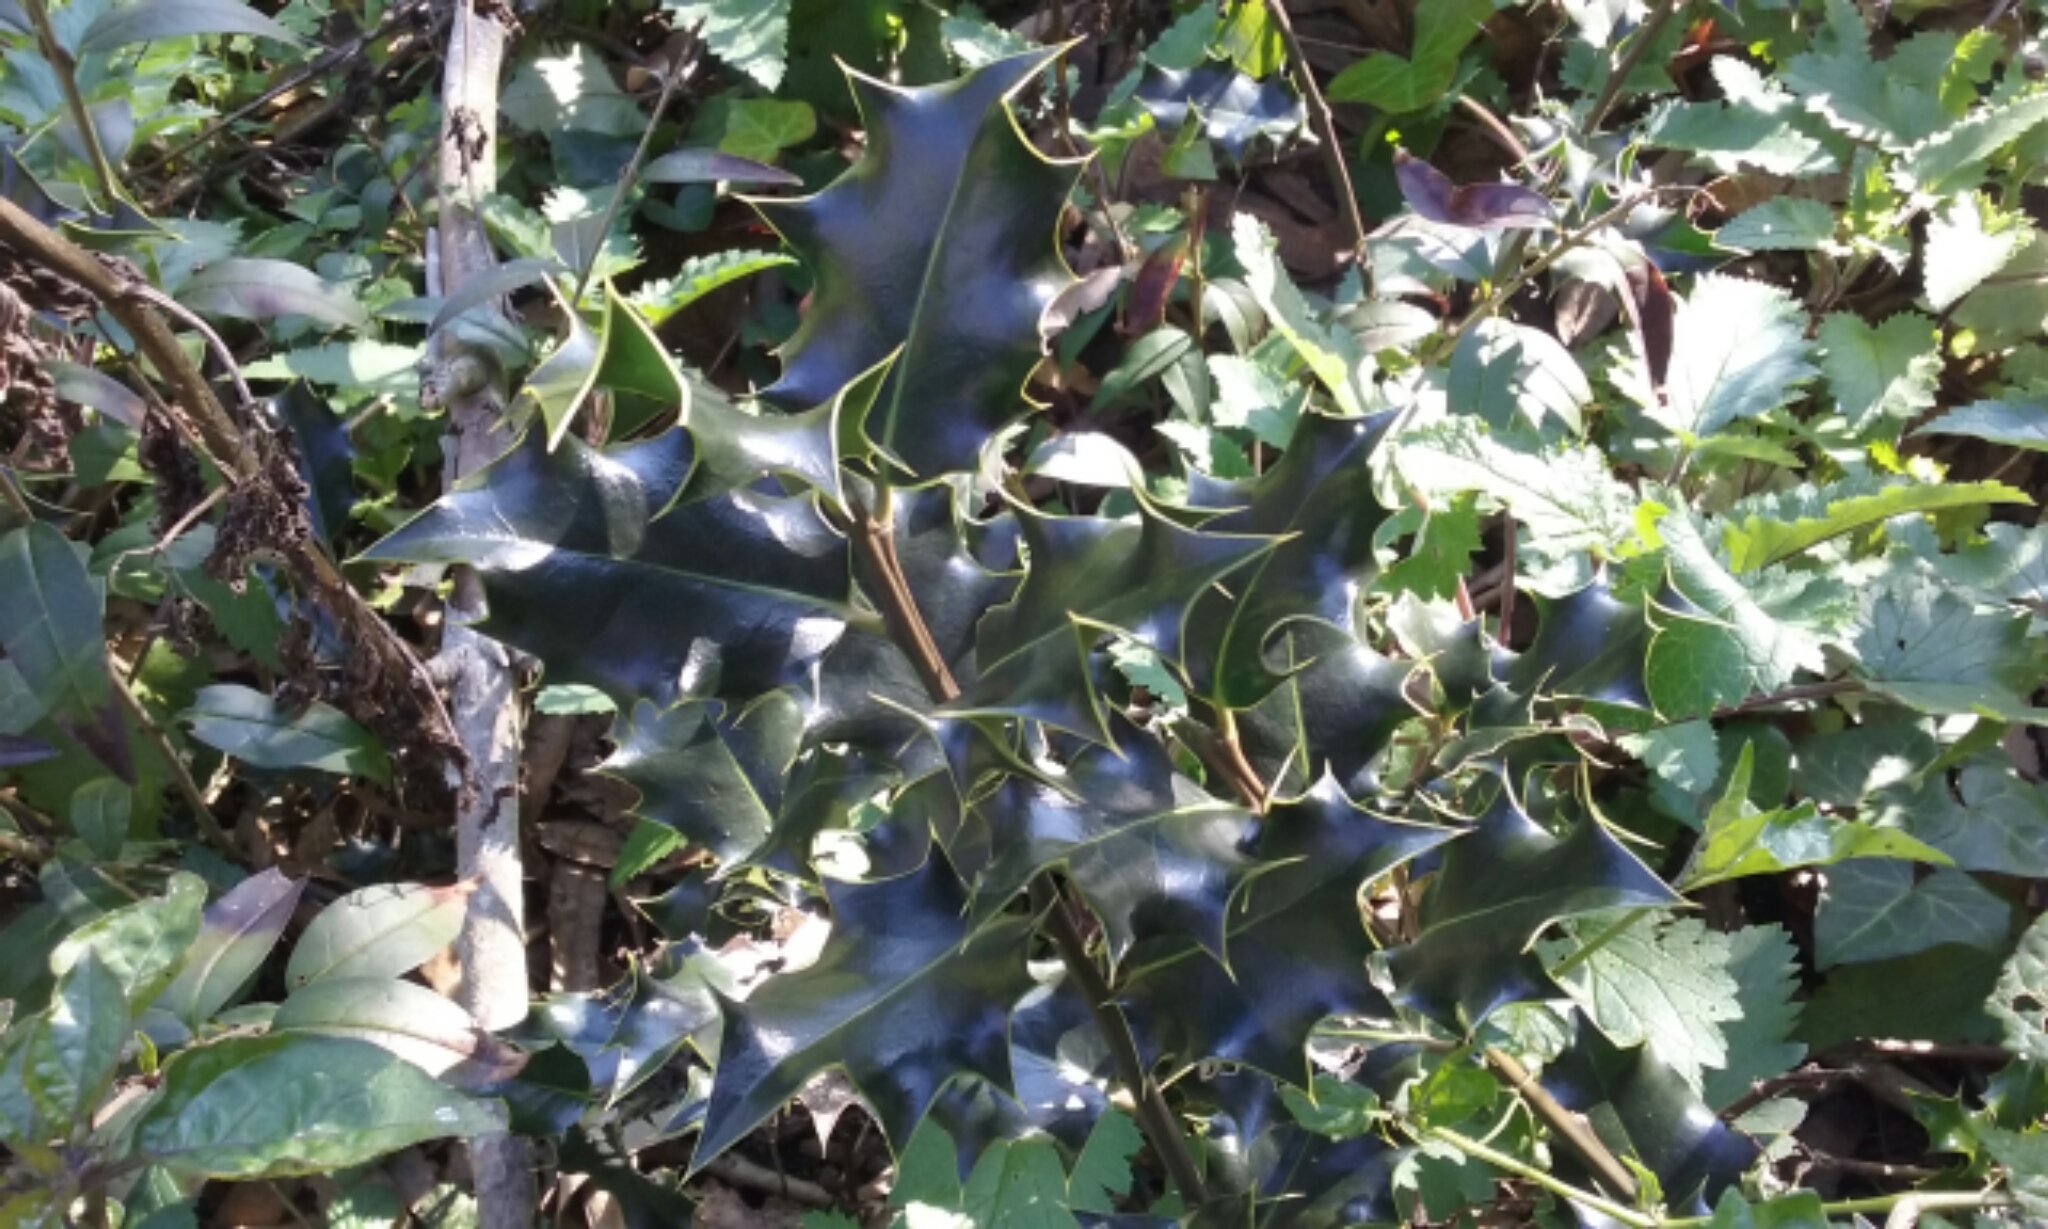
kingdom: Plantae
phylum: Tracheophyta
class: Magnoliopsida
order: Aquifoliales
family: Aquifoliaceae
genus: Ilex
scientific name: Ilex aquifolium
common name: English holly
